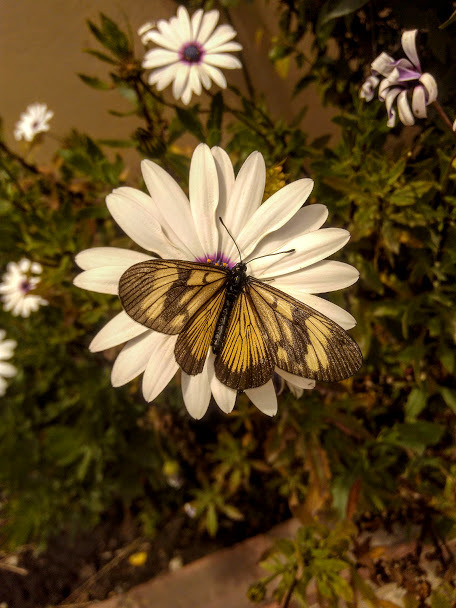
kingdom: Animalia
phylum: Arthropoda
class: Insecta
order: Lepidoptera
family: Nymphalidae
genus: Actinote
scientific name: Actinote anteas
